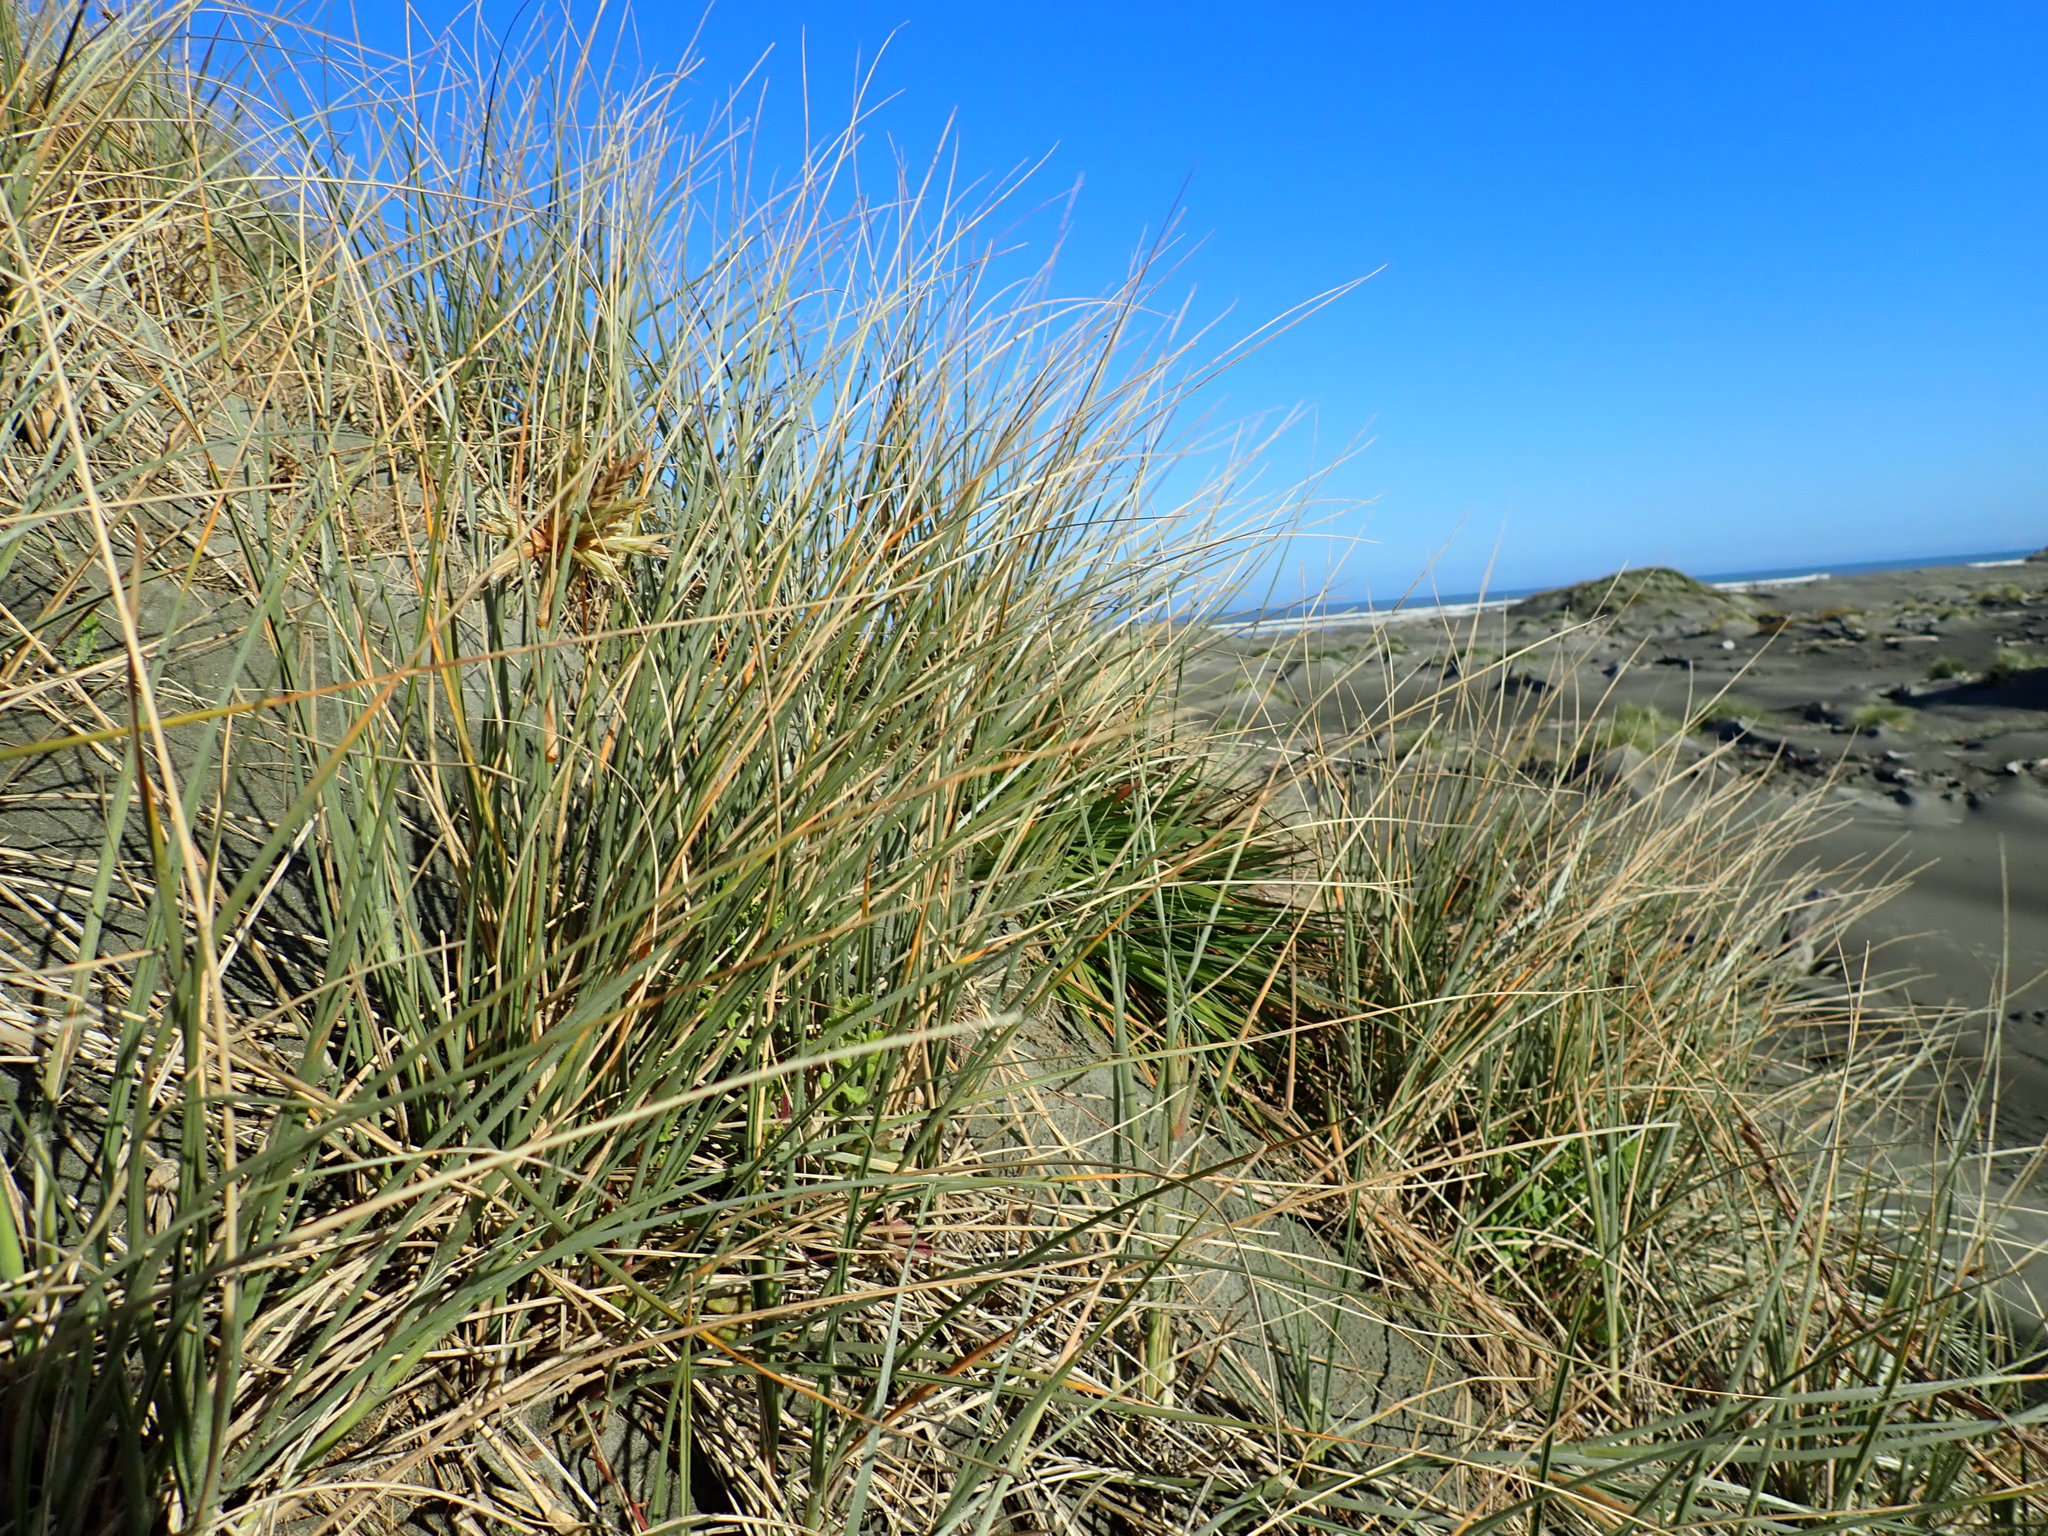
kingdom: Plantae
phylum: Tracheophyta
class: Liliopsida
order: Poales
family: Poaceae
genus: Spinifex
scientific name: Spinifex sericeus
